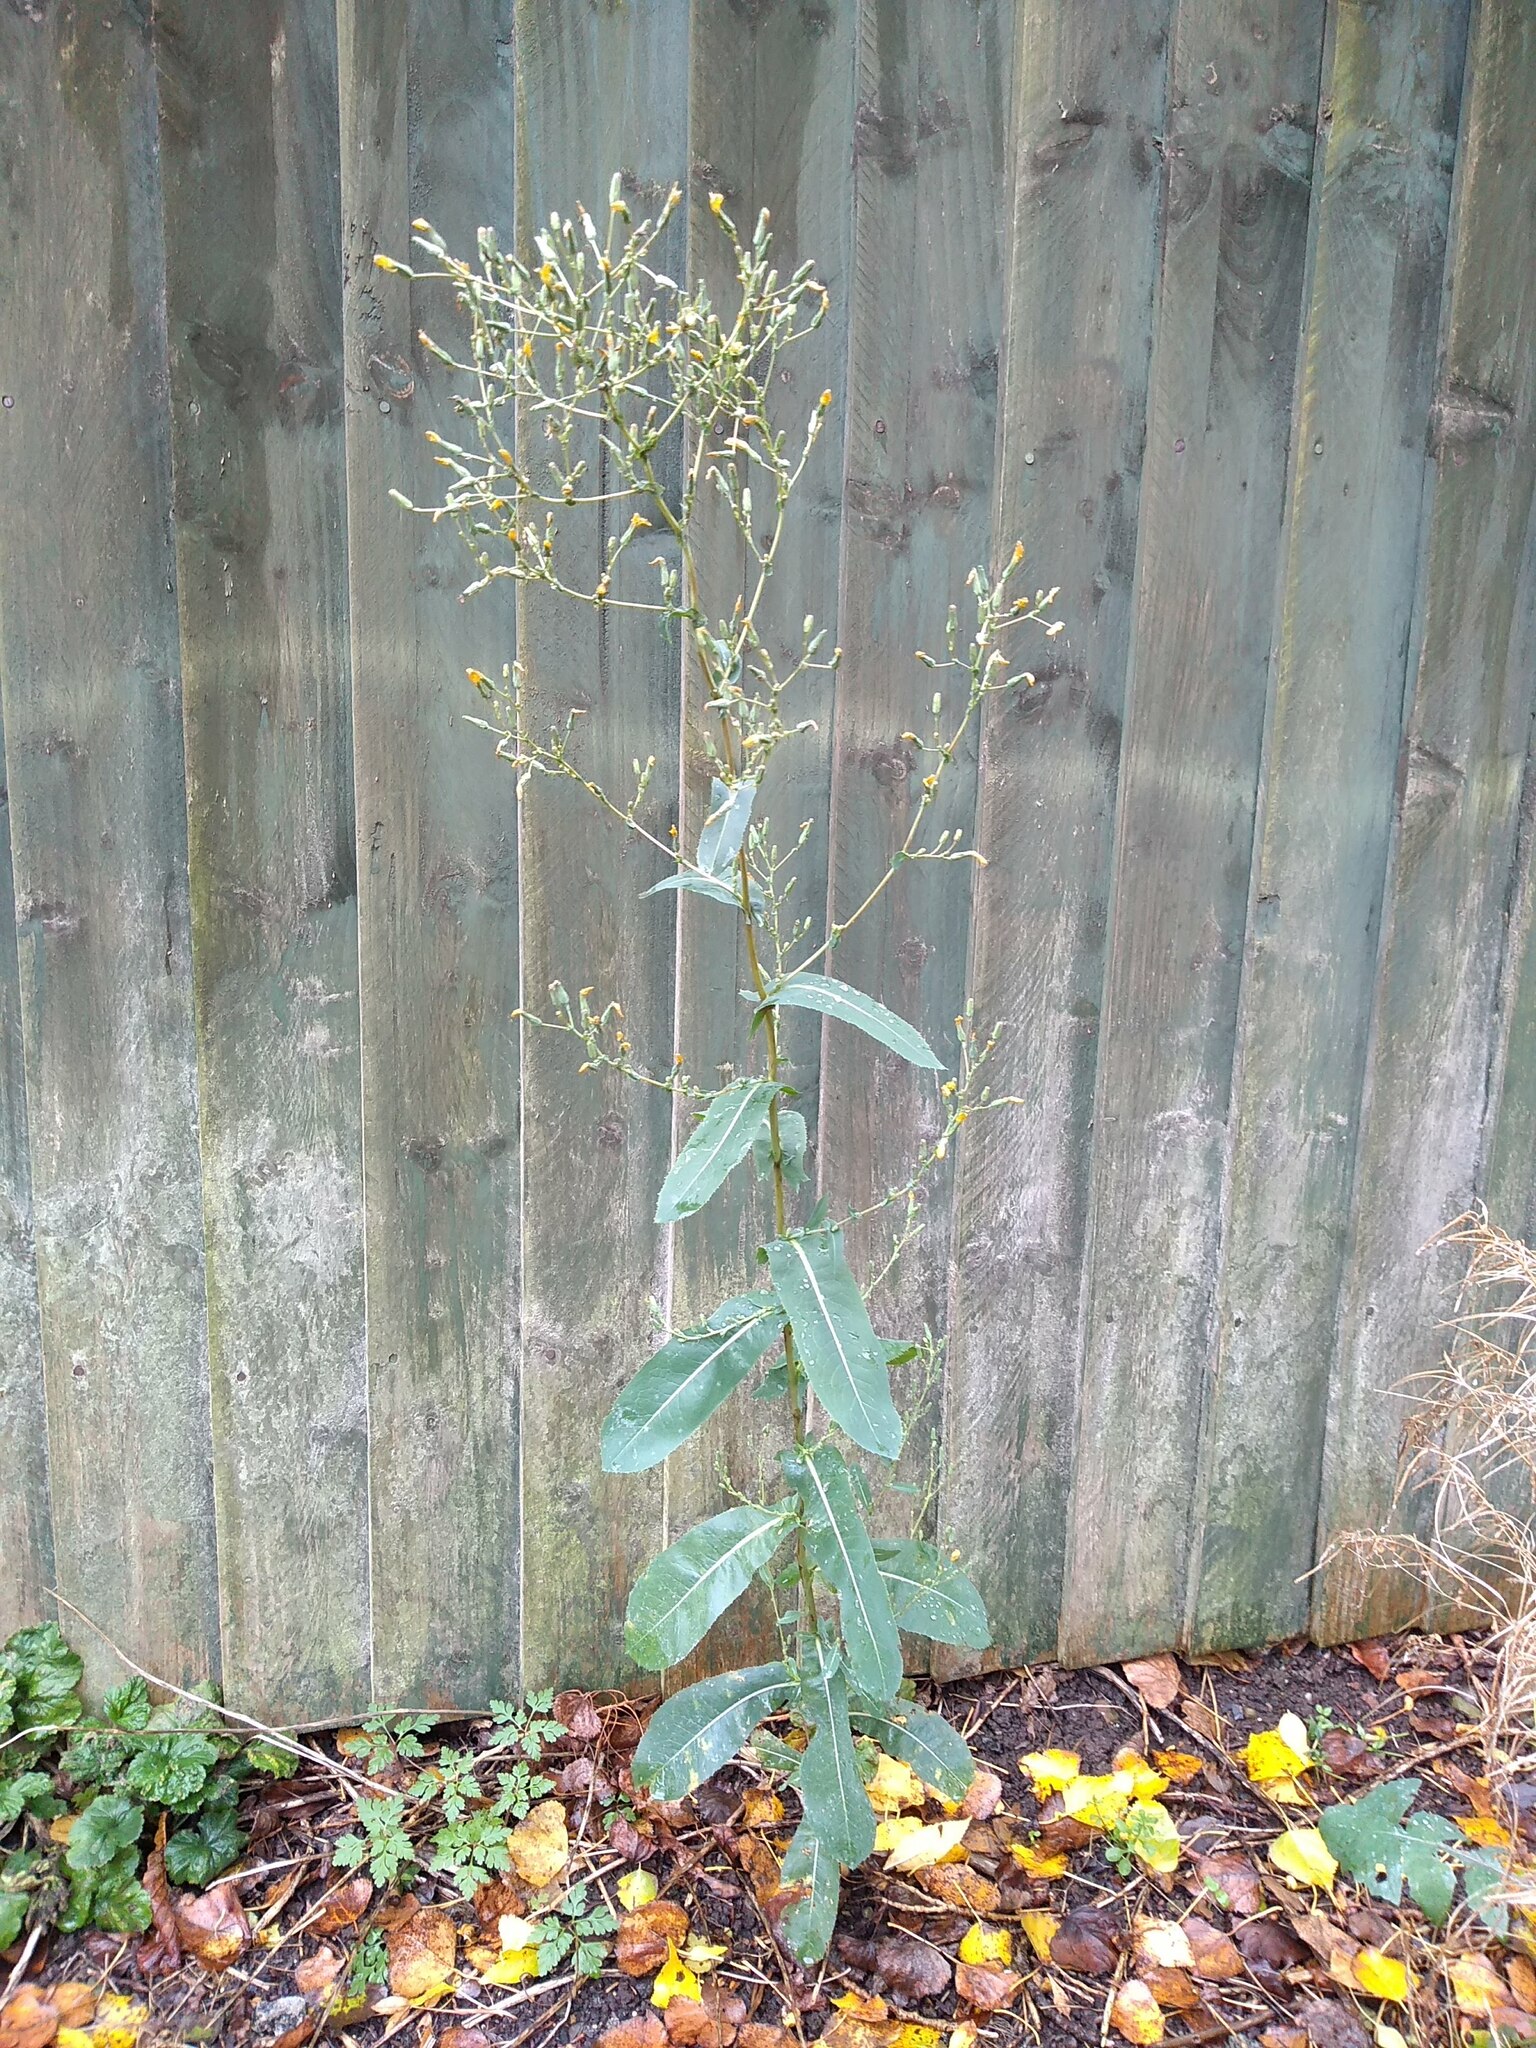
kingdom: Plantae
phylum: Tracheophyta
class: Magnoliopsida
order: Asterales
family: Asteraceae
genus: Lactuca
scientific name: Lactuca serriola
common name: Prickly lettuce
